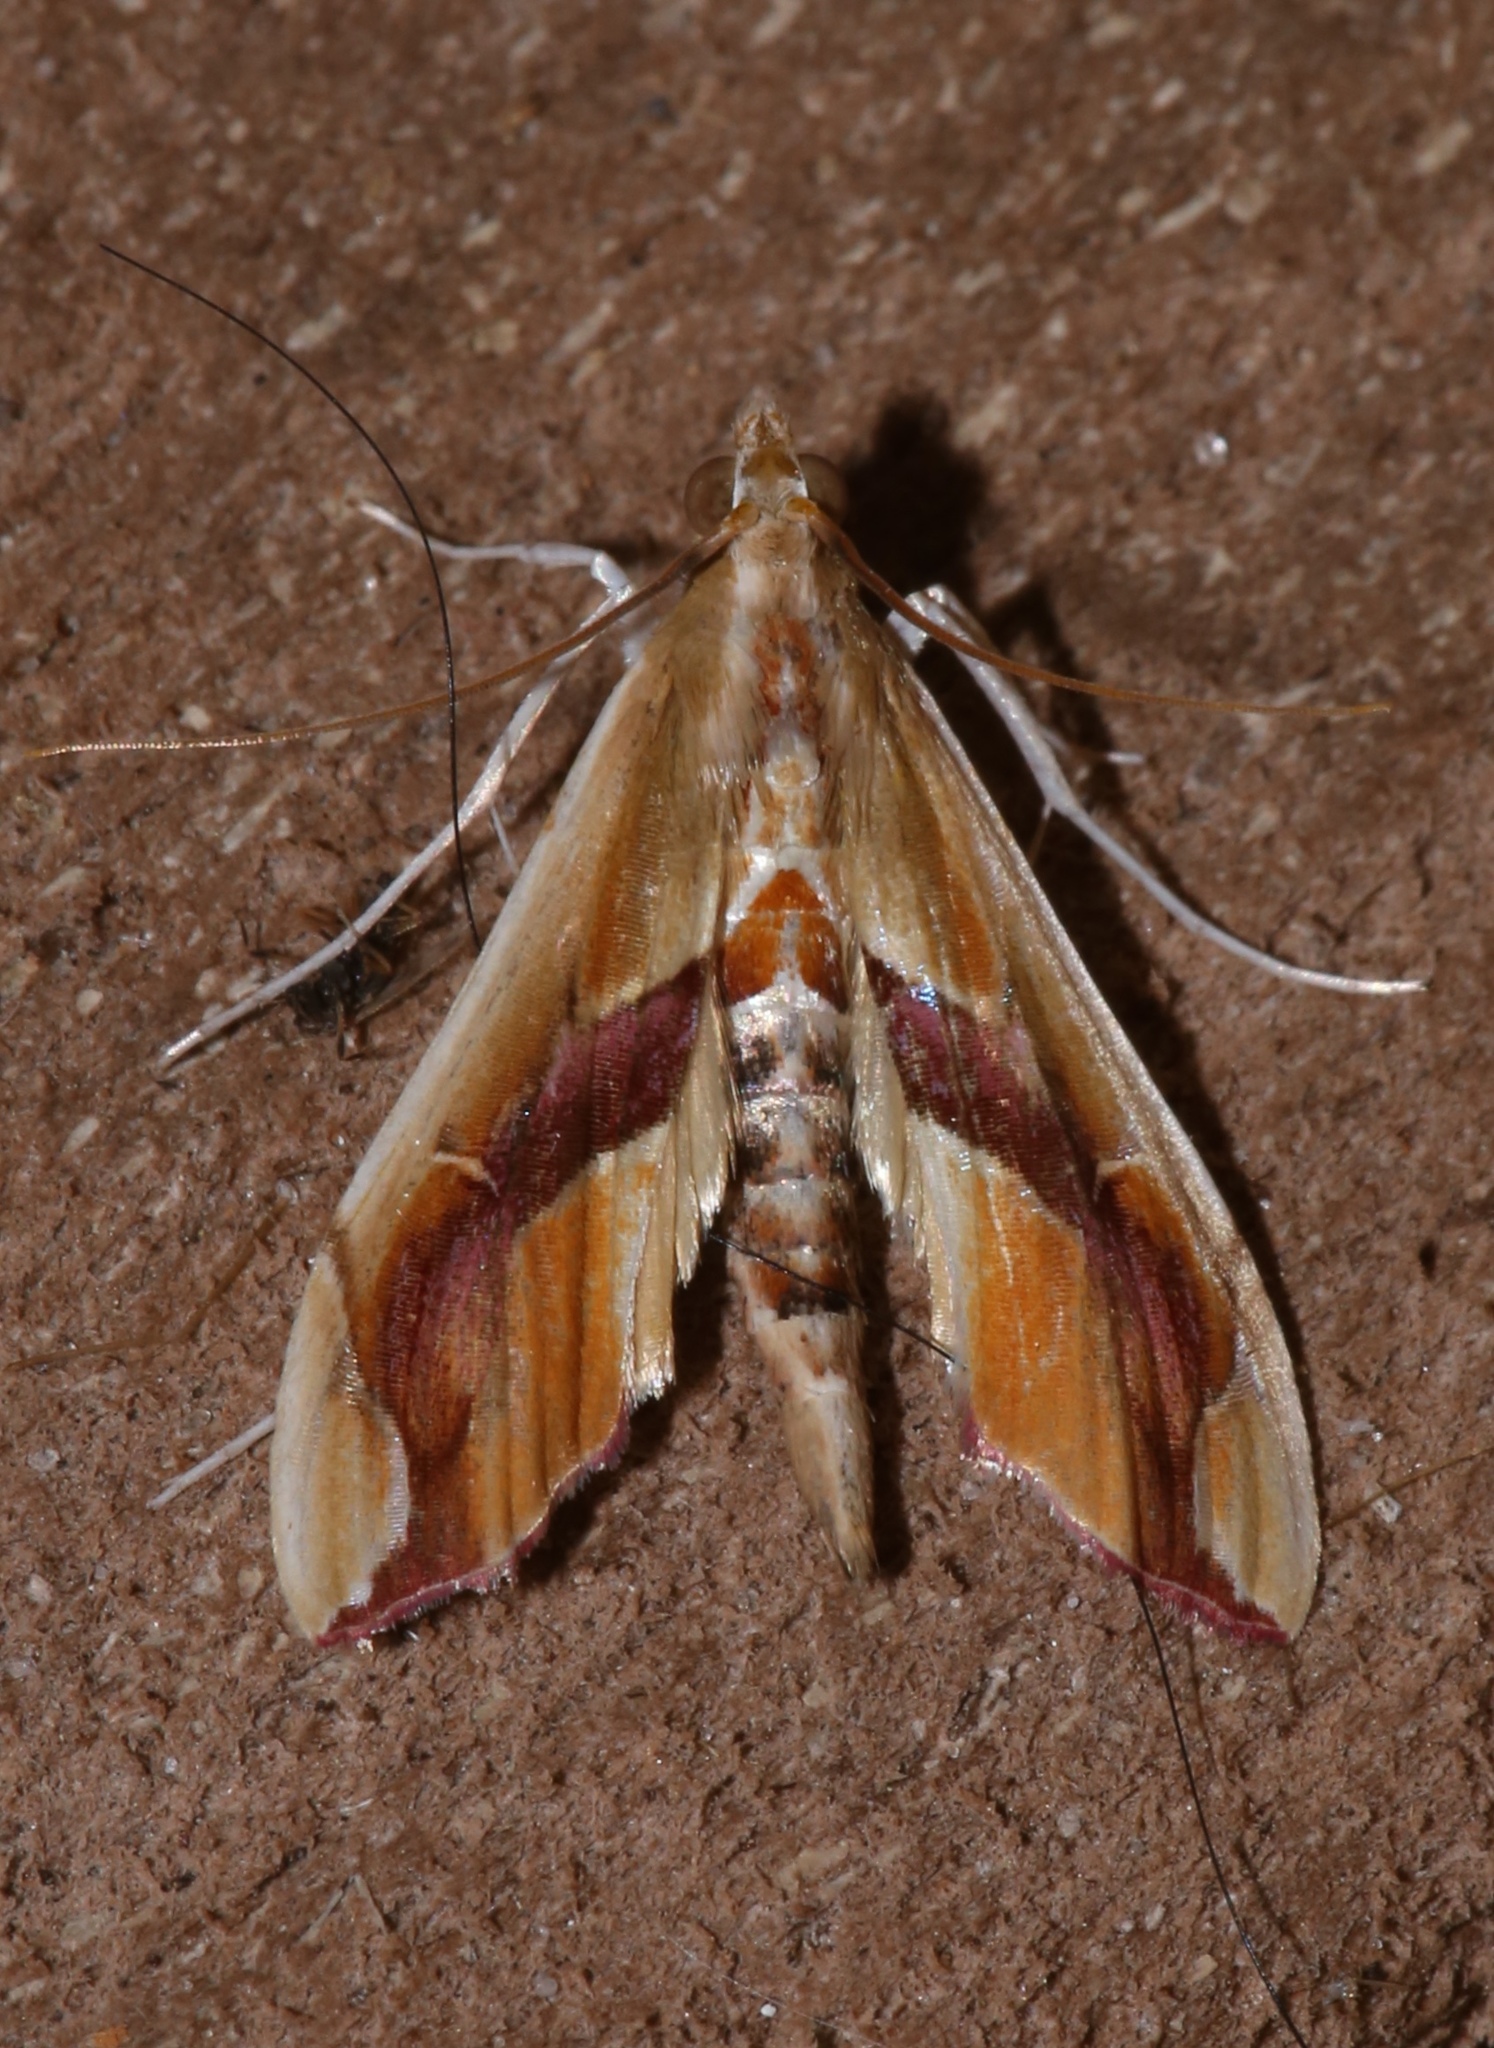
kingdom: Animalia
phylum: Arthropoda
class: Insecta
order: Lepidoptera
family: Crambidae
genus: Agathodes
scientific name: Agathodes monstralis
